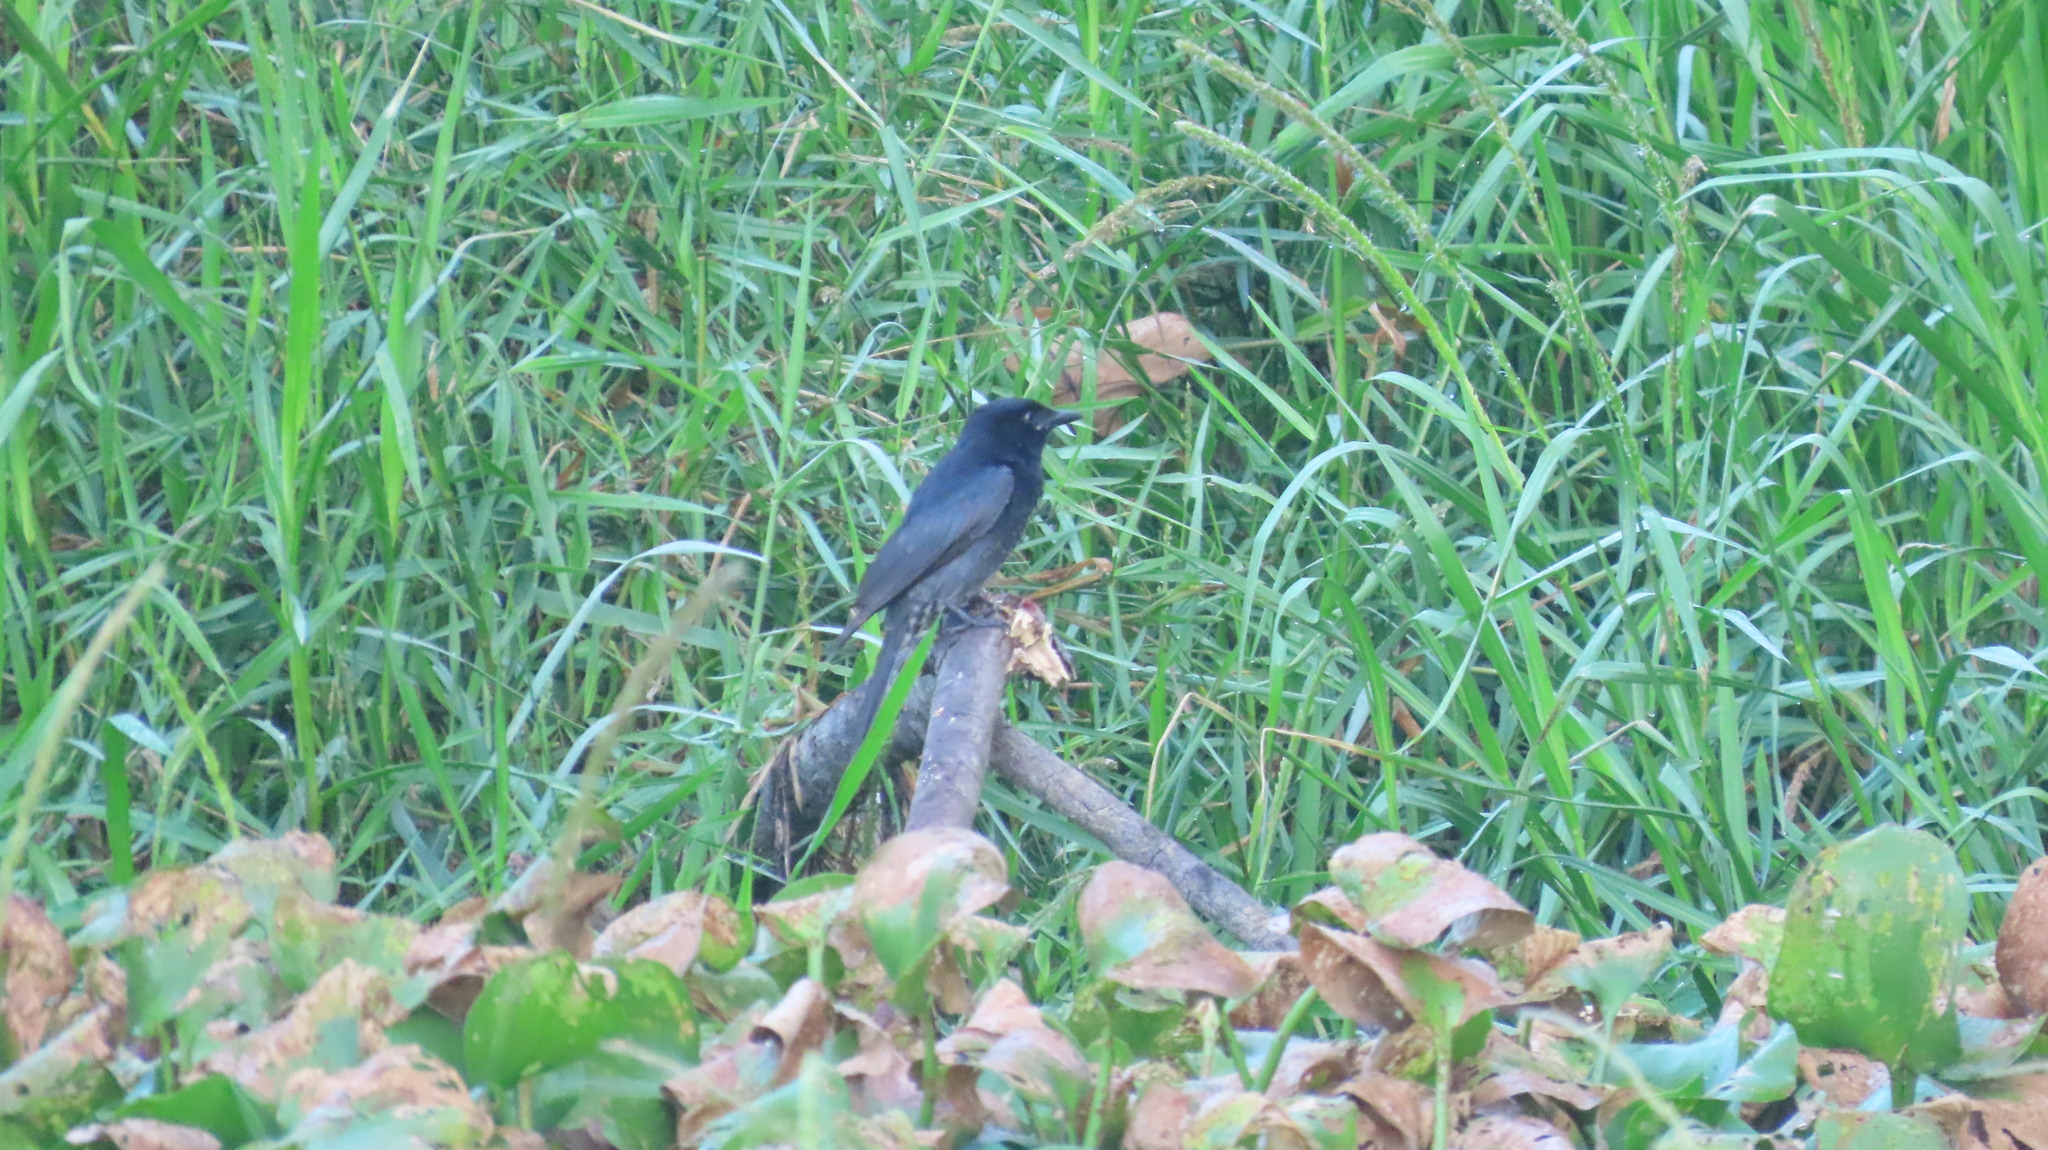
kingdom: Animalia
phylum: Chordata
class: Aves
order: Passeriformes
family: Dicruridae
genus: Dicrurus
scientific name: Dicrurus macrocercus
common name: Black drongo
